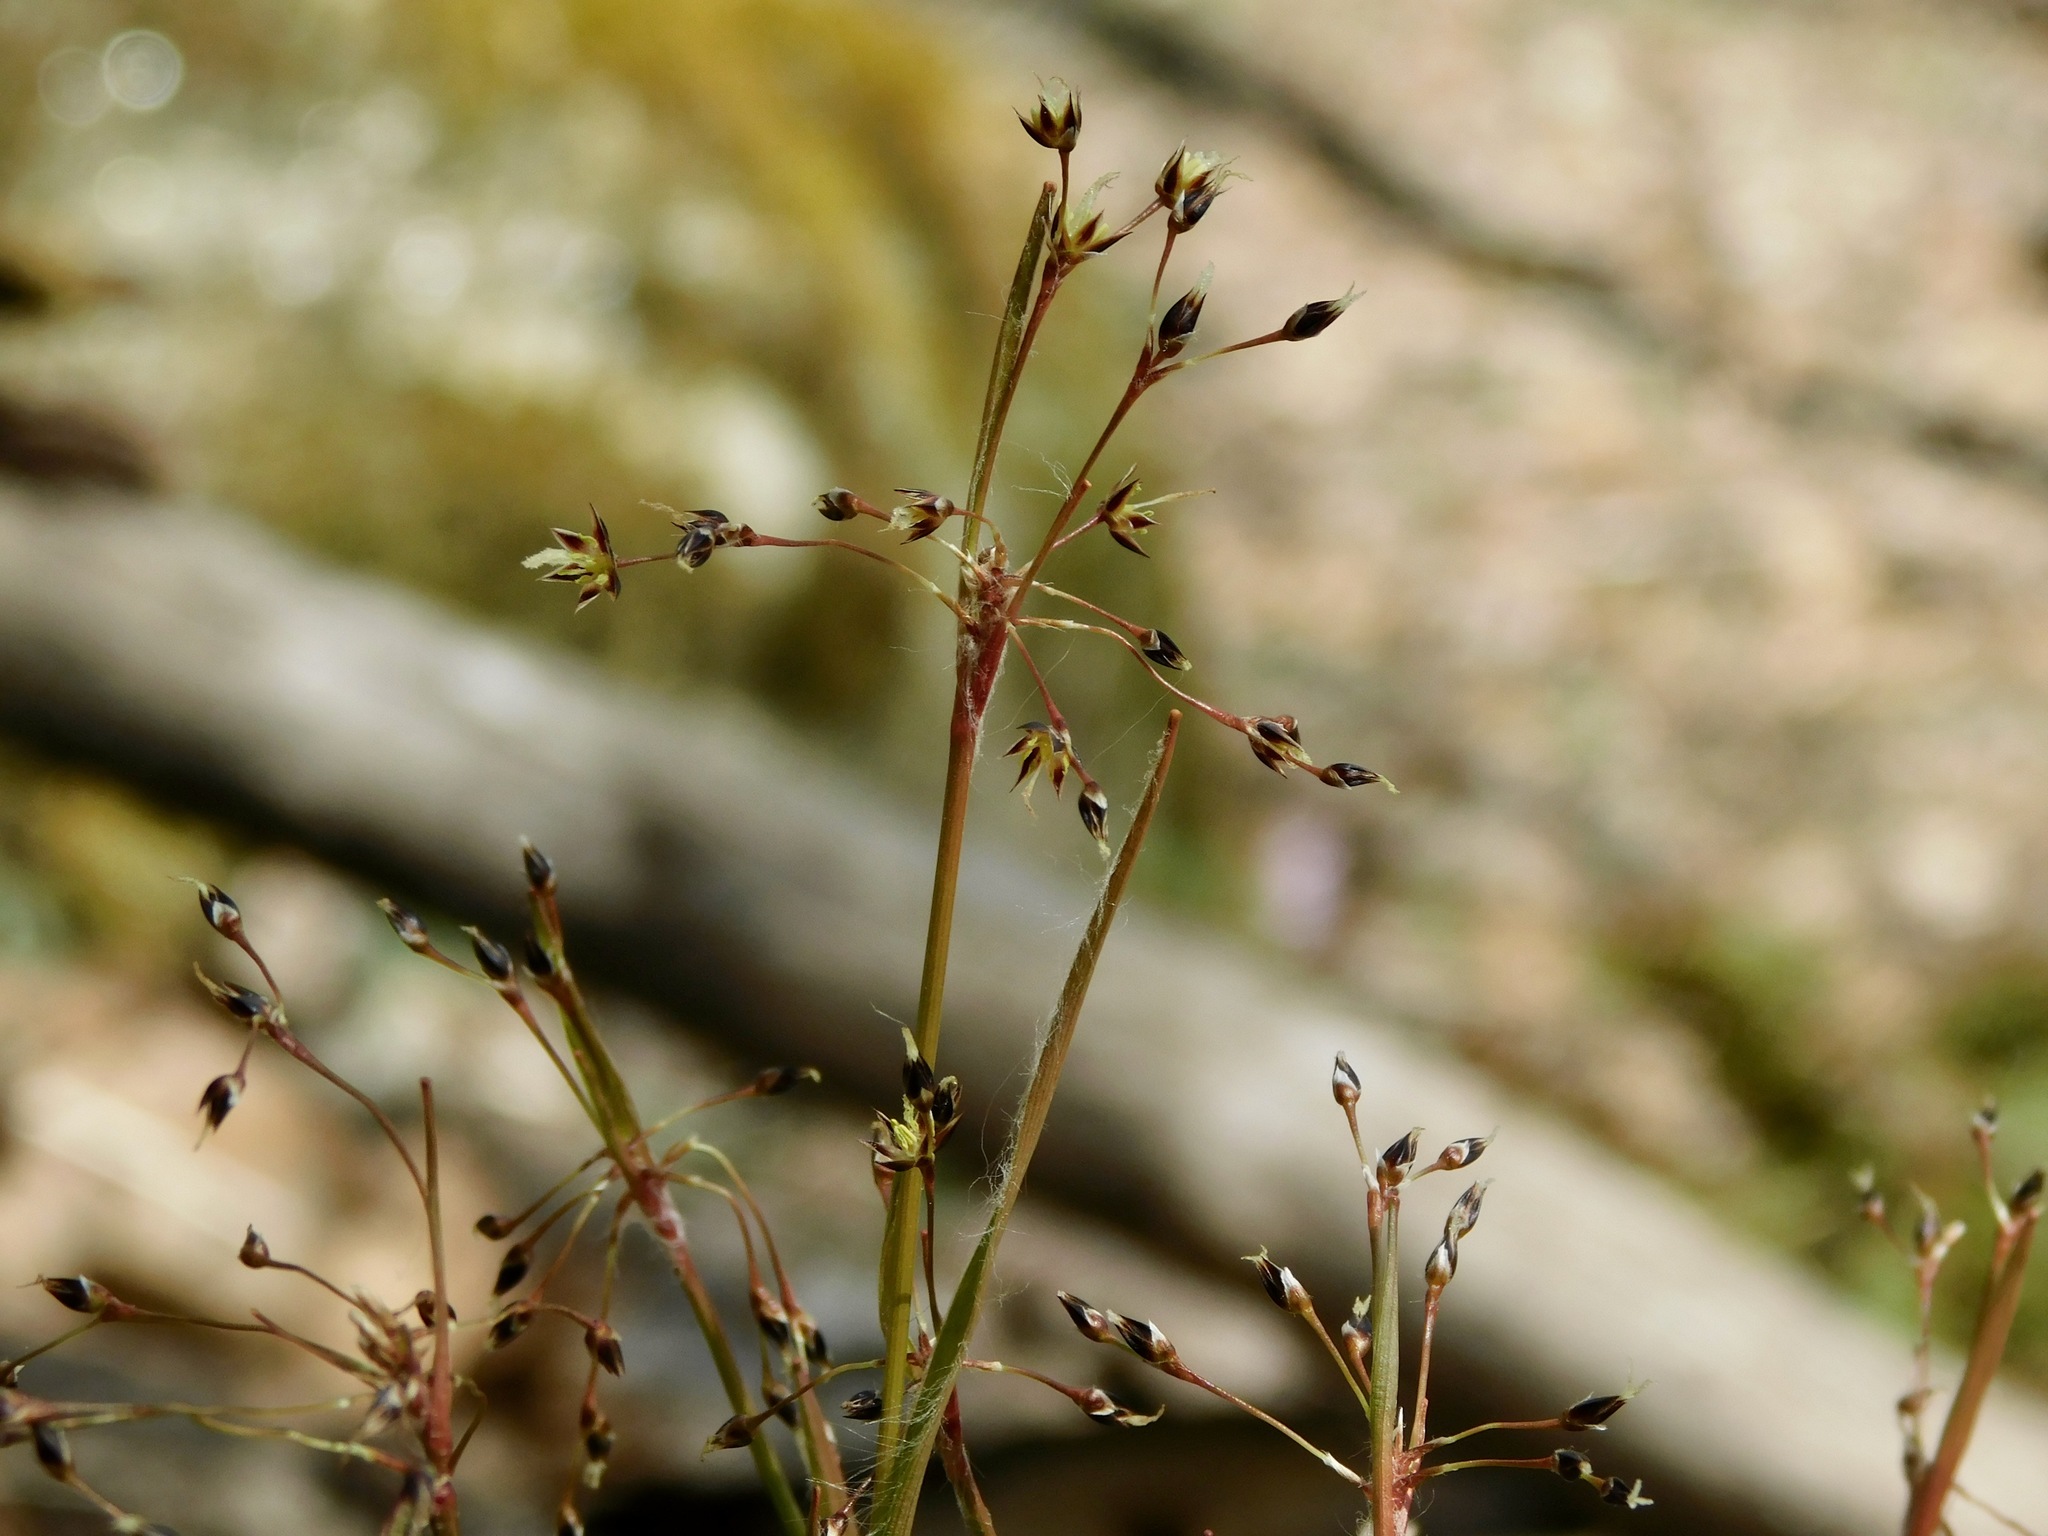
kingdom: Plantae
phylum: Tracheophyta
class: Liliopsida
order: Poales
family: Juncaceae
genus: Luzula
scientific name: Luzula acuminata
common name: Hairy woodrush
